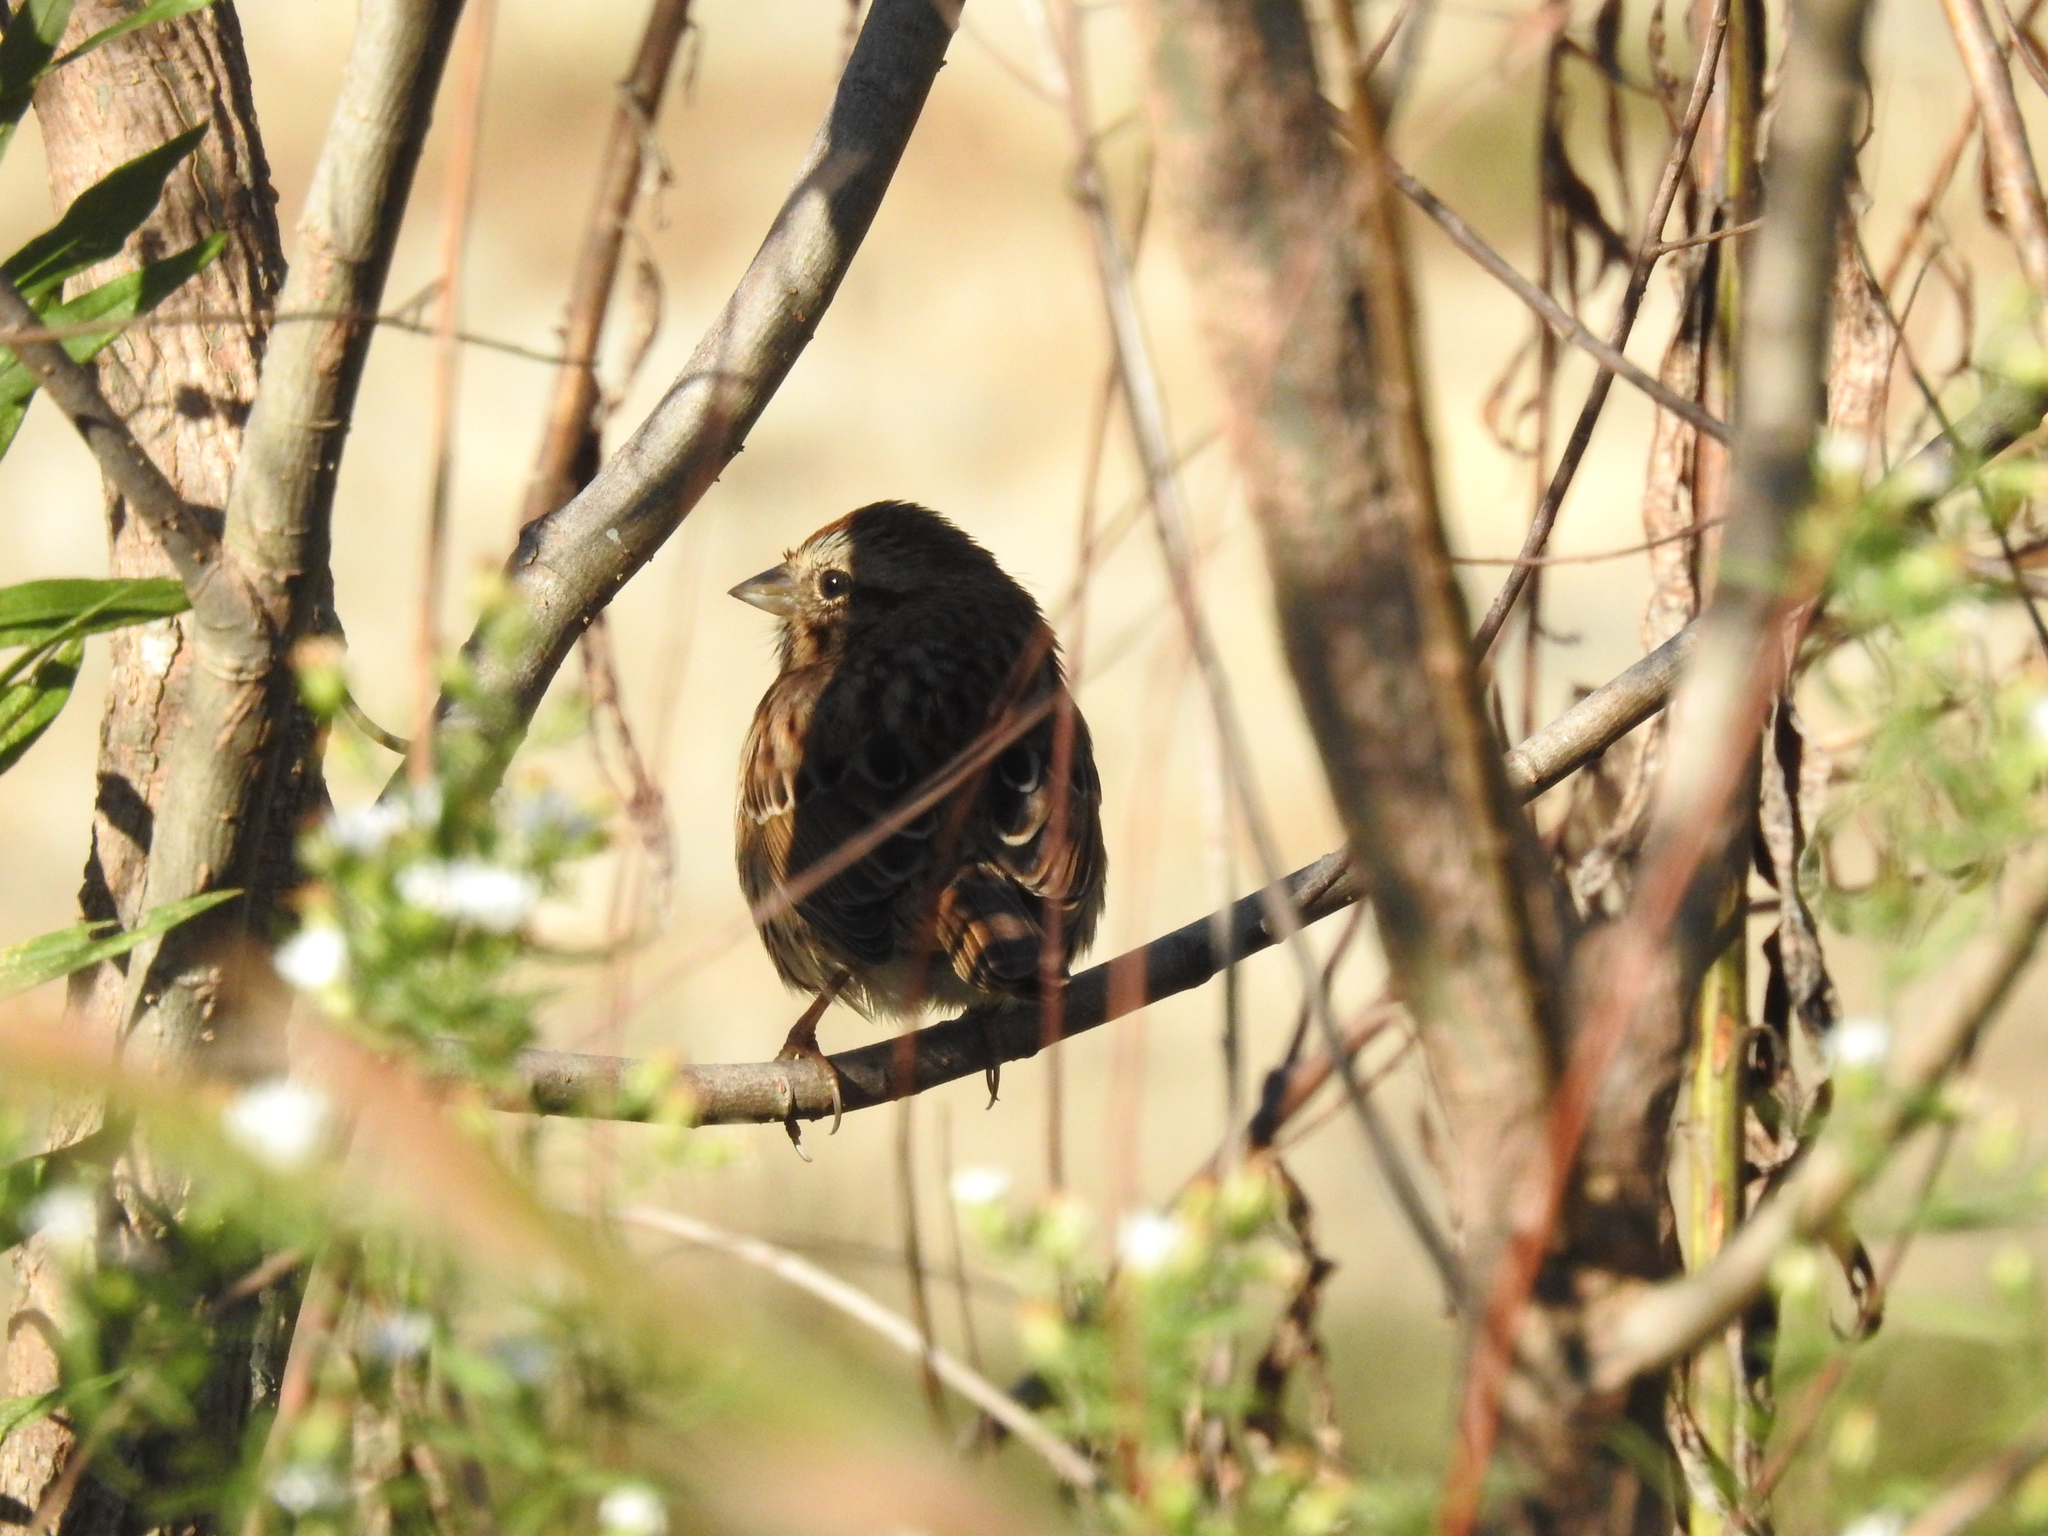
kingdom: Animalia
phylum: Chordata
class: Aves
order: Passeriformes
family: Passerellidae
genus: Melospiza
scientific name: Melospiza melodia
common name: Song sparrow
